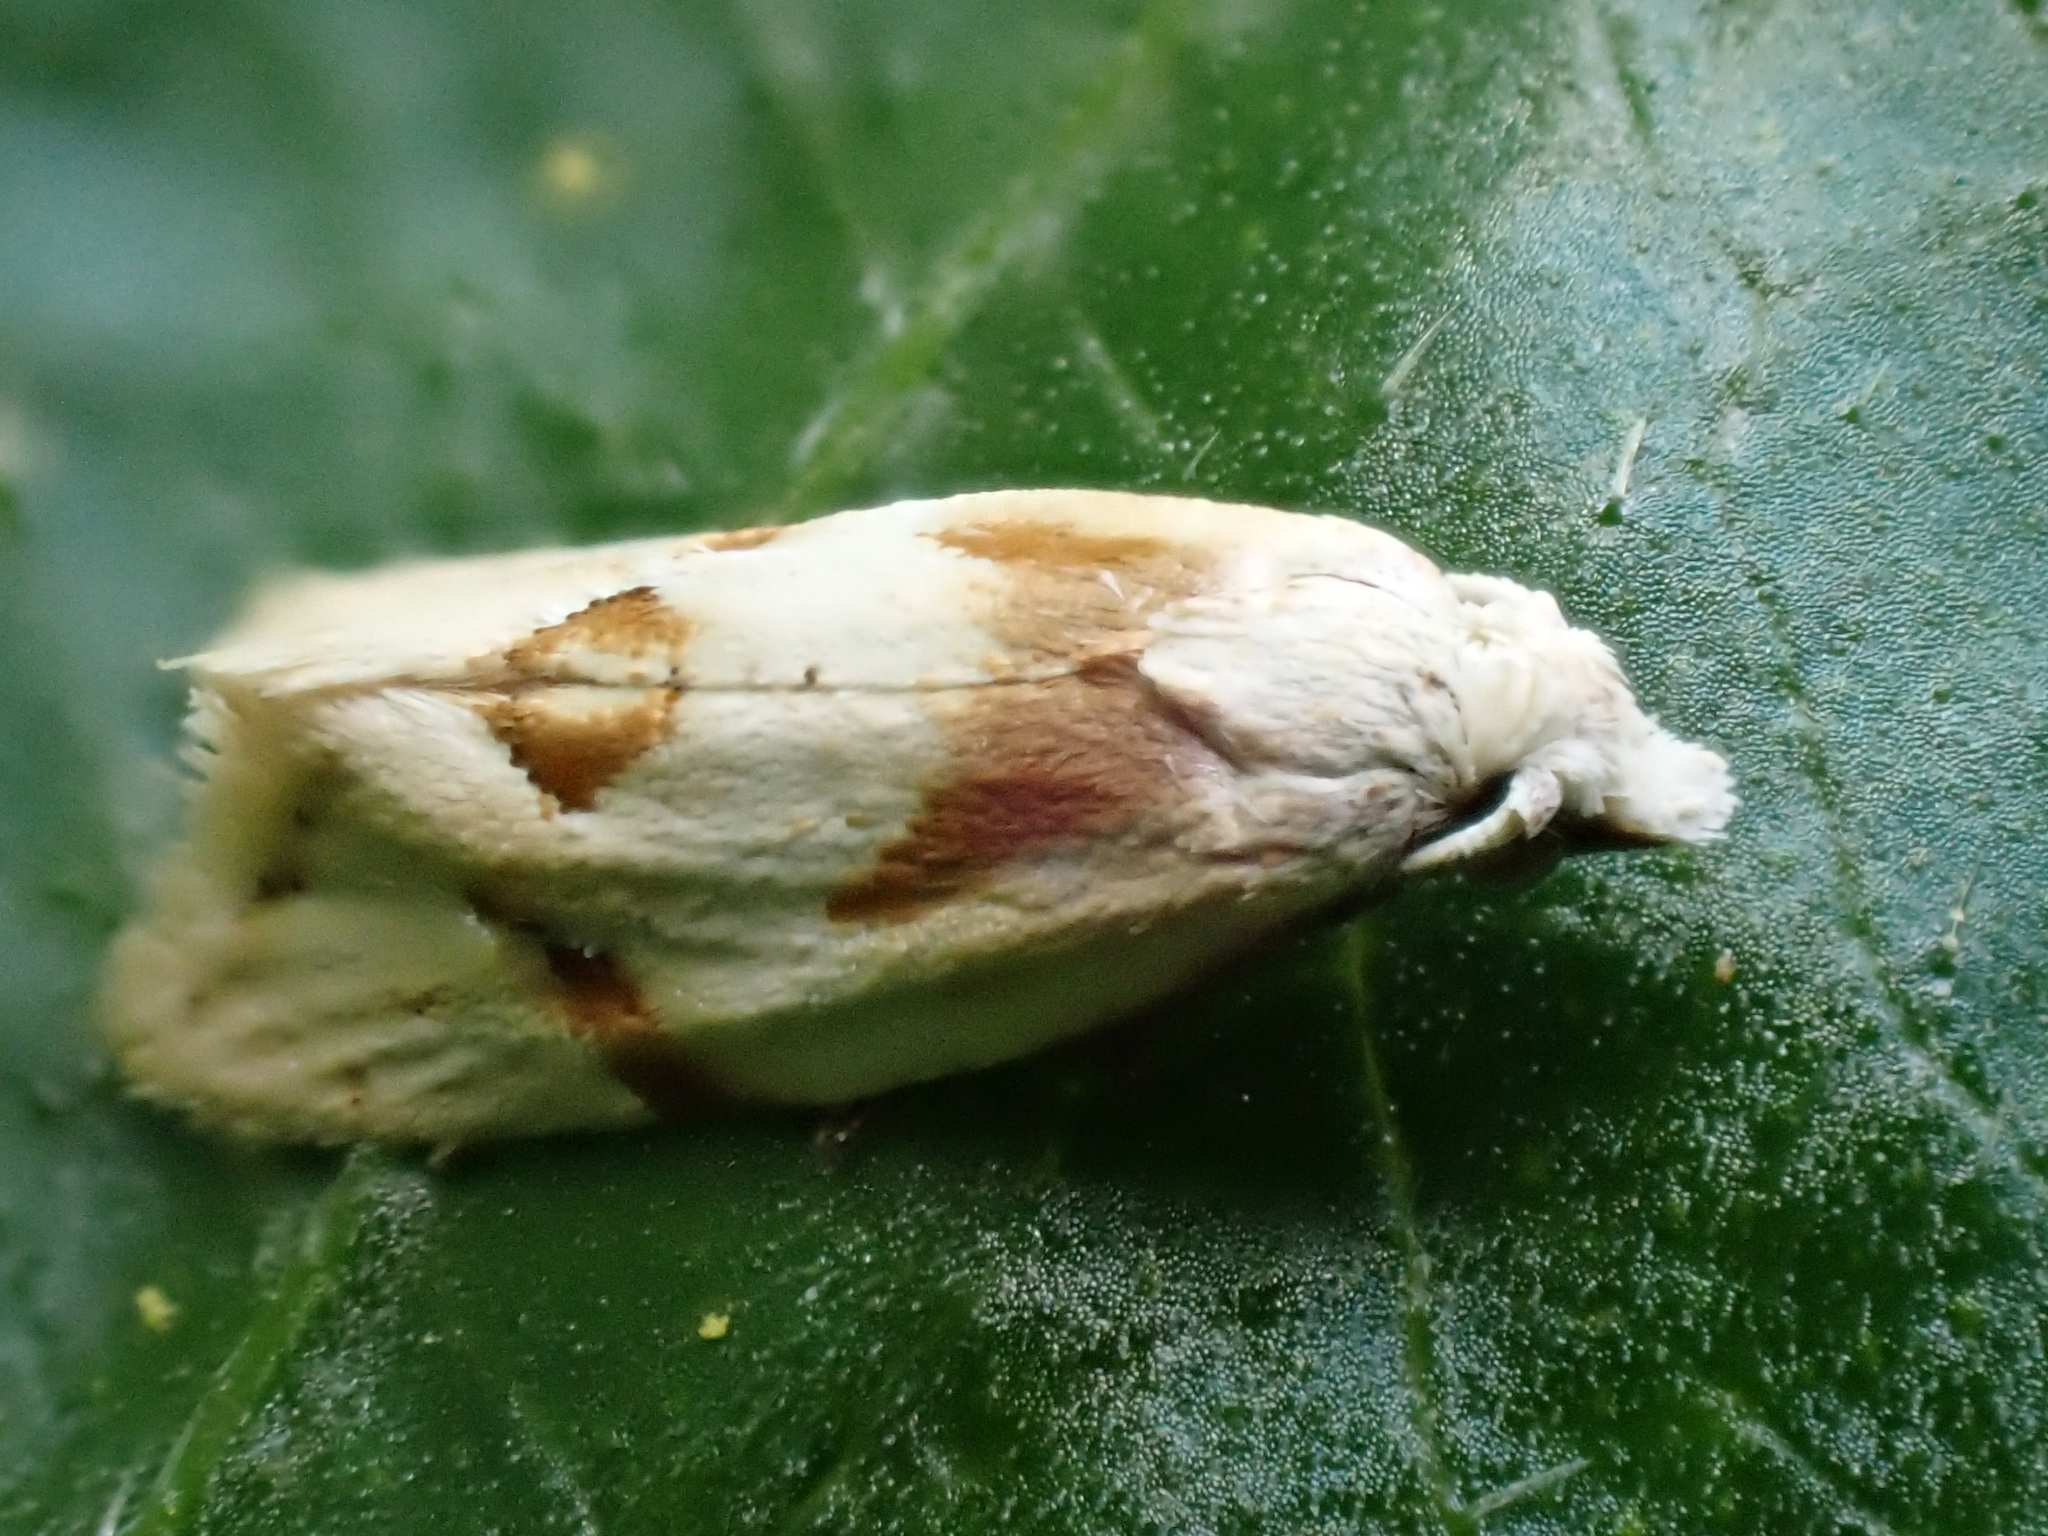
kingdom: Animalia
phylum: Arthropoda
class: Insecta
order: Lepidoptera
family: Tortricidae
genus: Aethes
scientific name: Aethes seriatana
